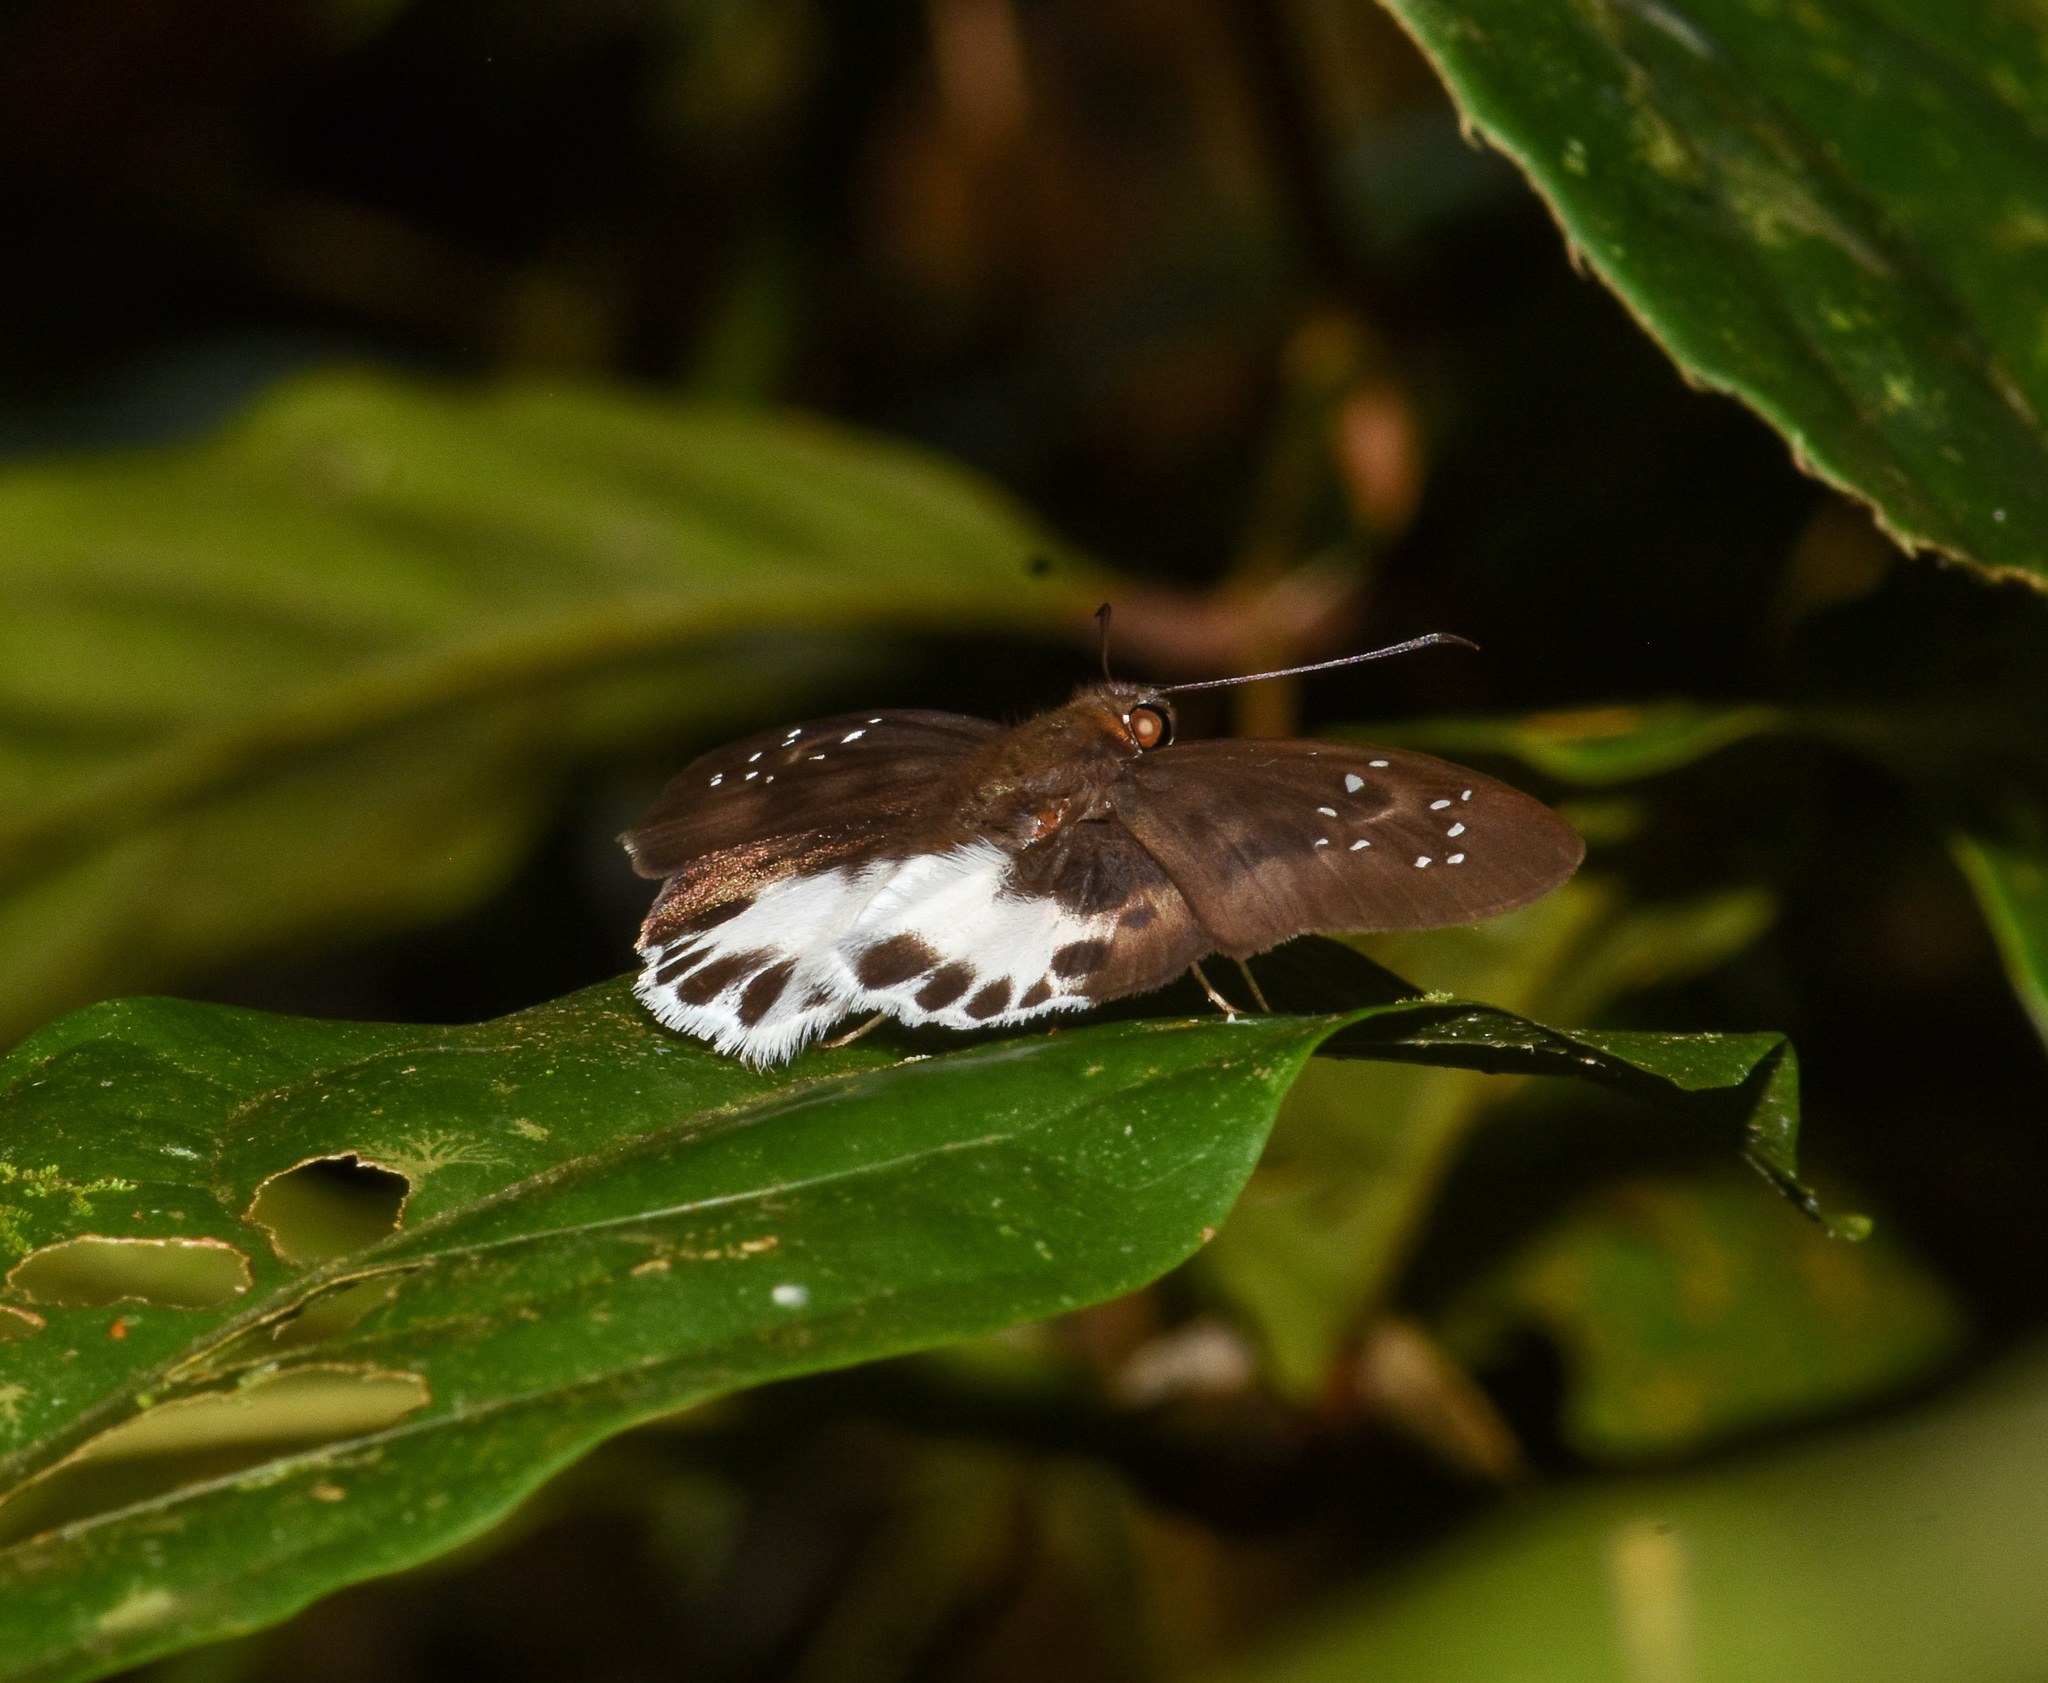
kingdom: Animalia
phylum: Arthropoda
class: Insecta
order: Lepidoptera
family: Hesperiidae
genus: Tagiades
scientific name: Tagiades litigiosa
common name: Water snow flat
